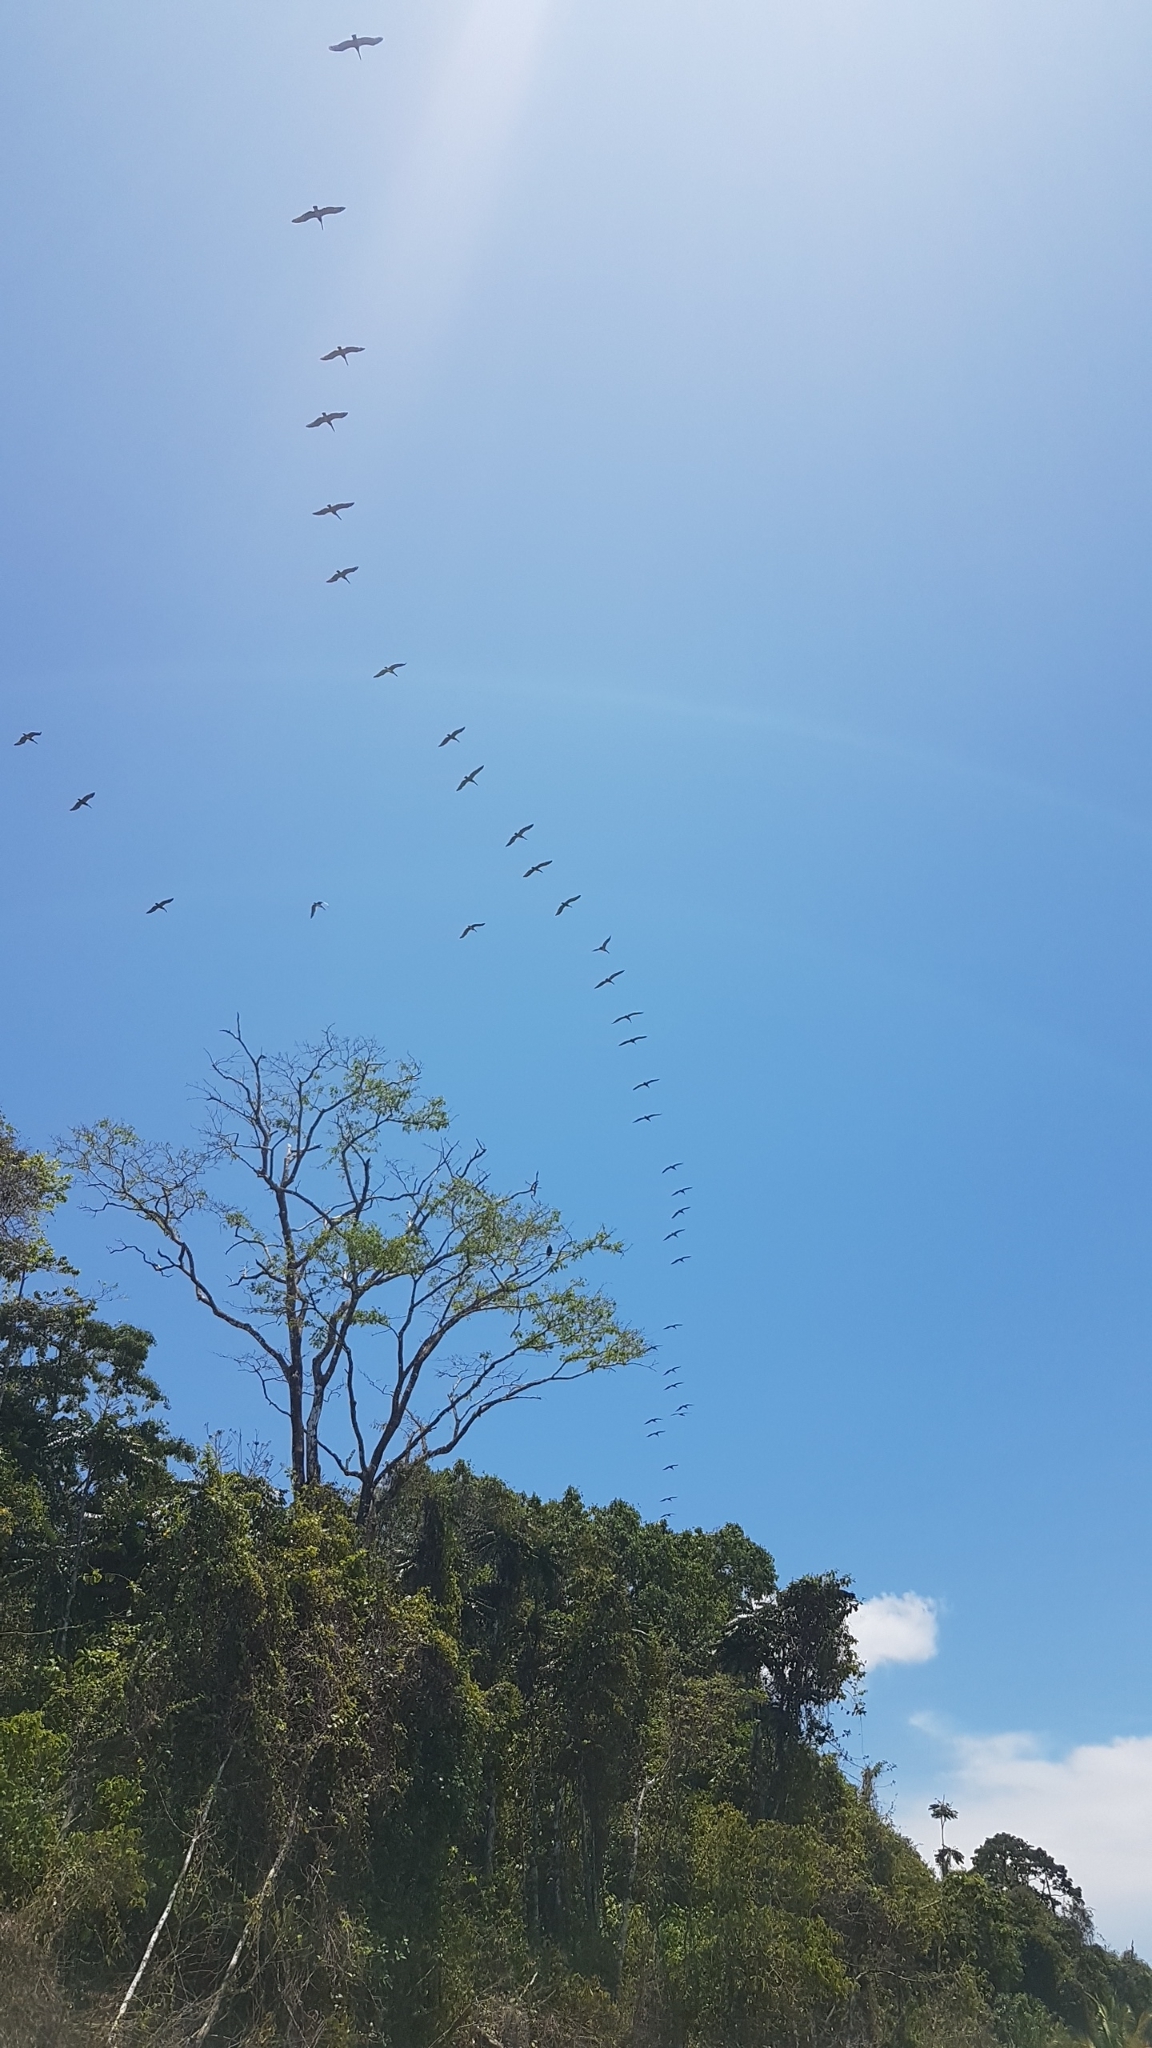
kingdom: Animalia
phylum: Chordata
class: Aves
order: Pelecaniformes
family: Pelecanidae
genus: Pelecanus
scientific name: Pelecanus occidentalis
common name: Brown pelican
